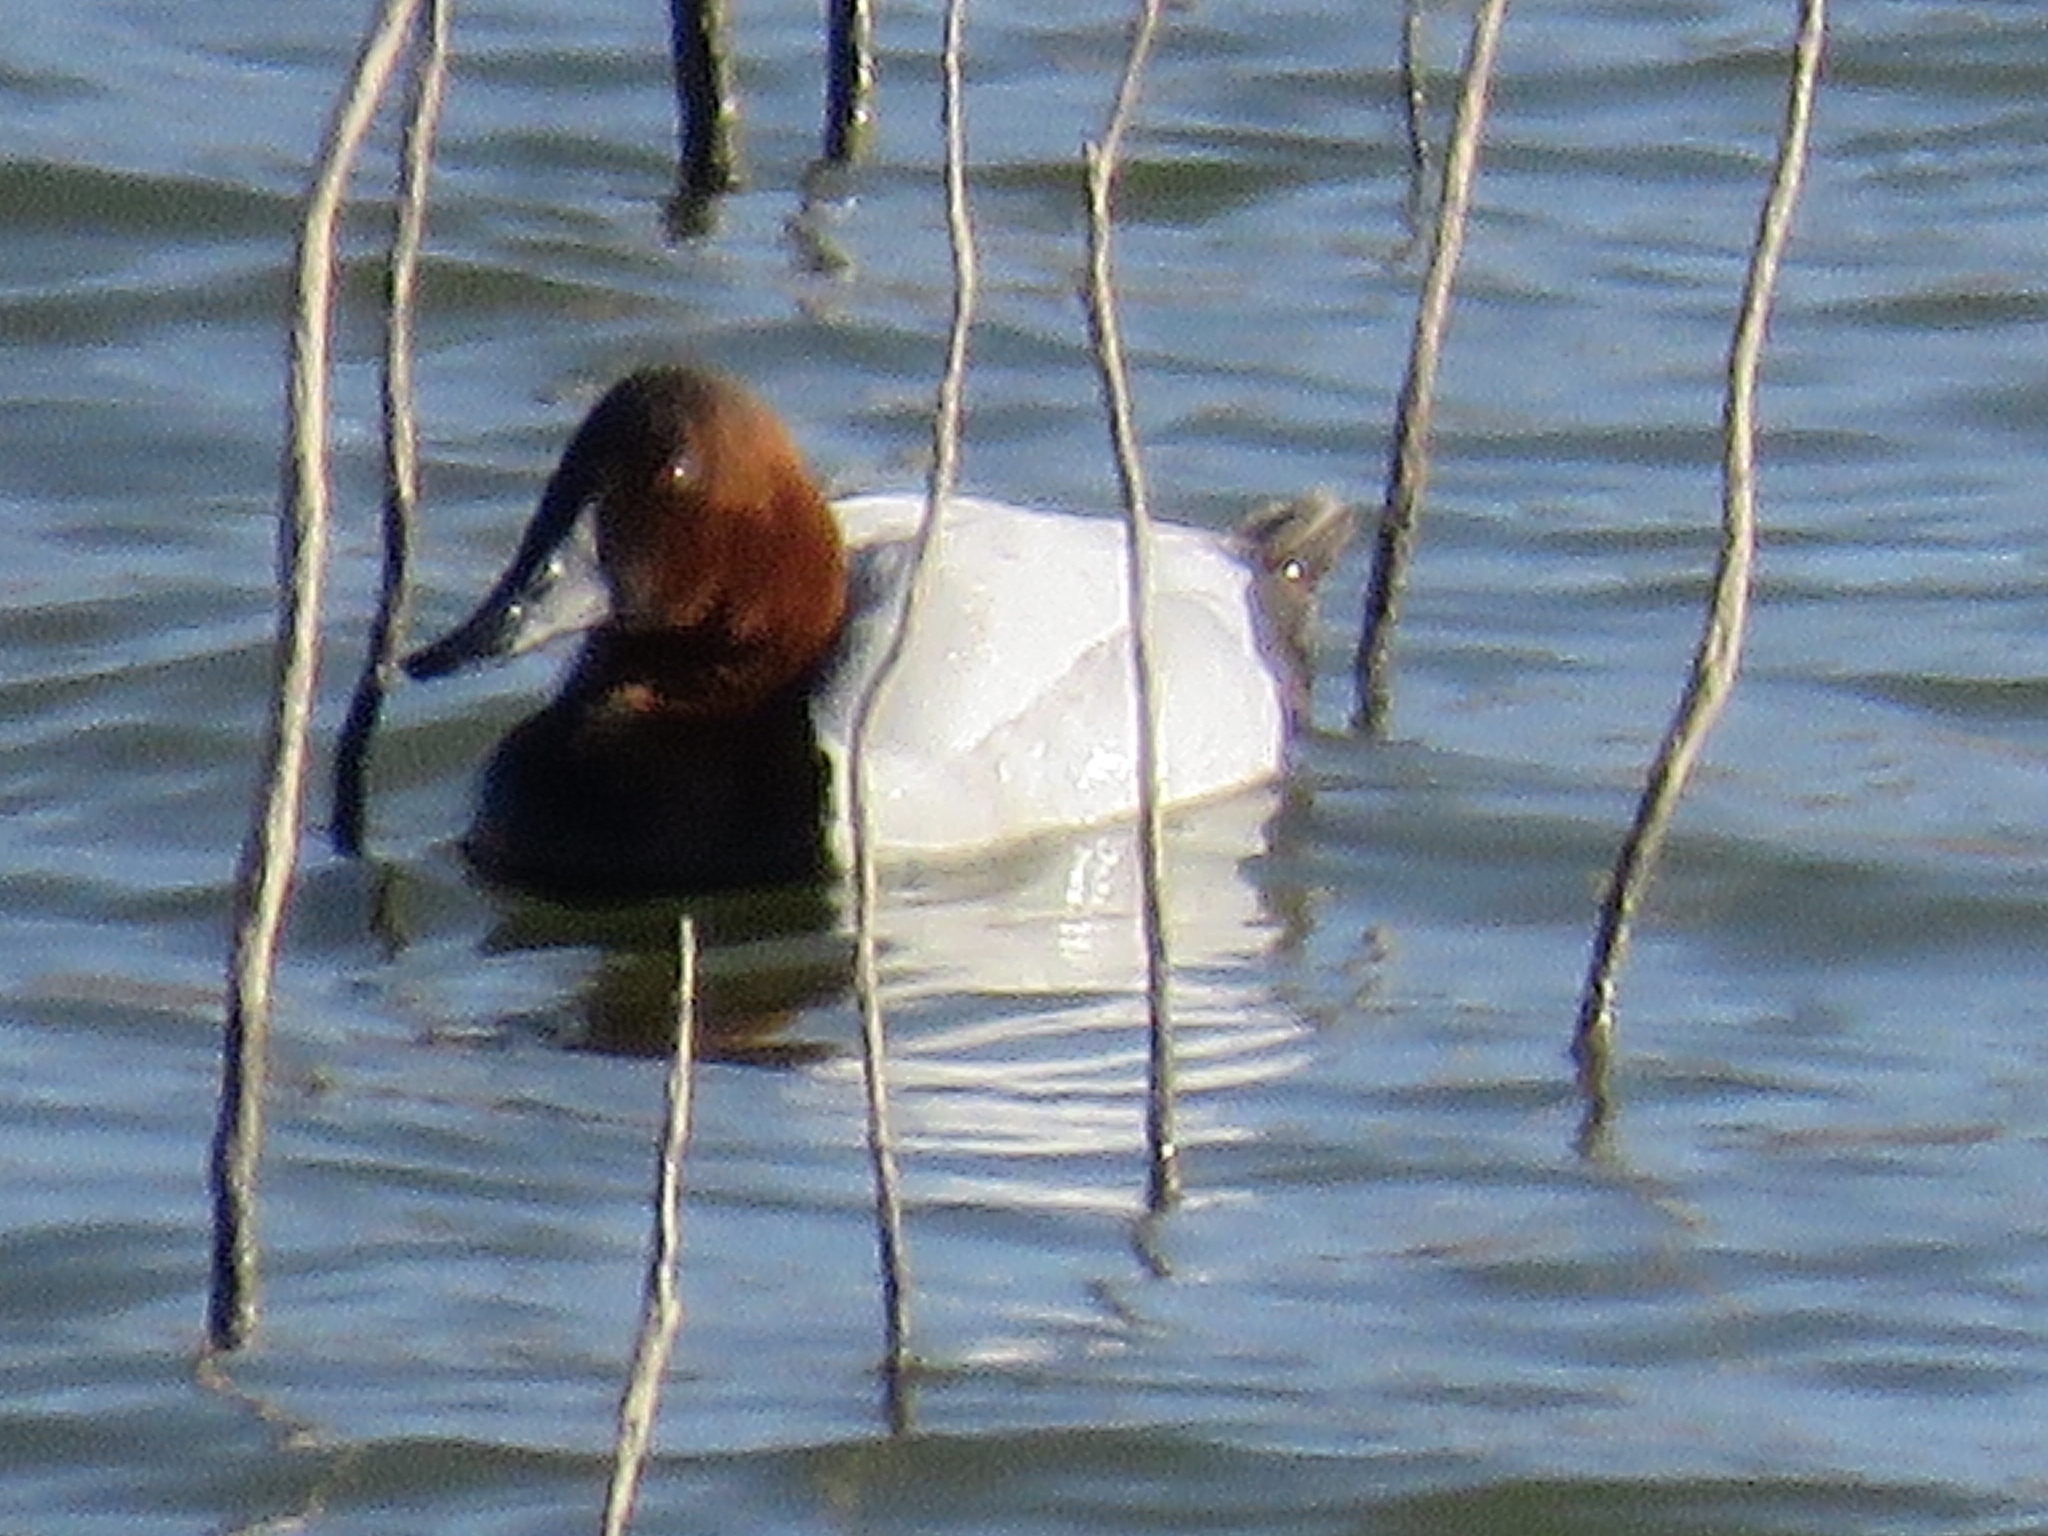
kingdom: Animalia
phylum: Chordata
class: Aves
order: Anseriformes
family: Anatidae
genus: Aythya
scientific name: Aythya valisineria
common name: Canvasback
